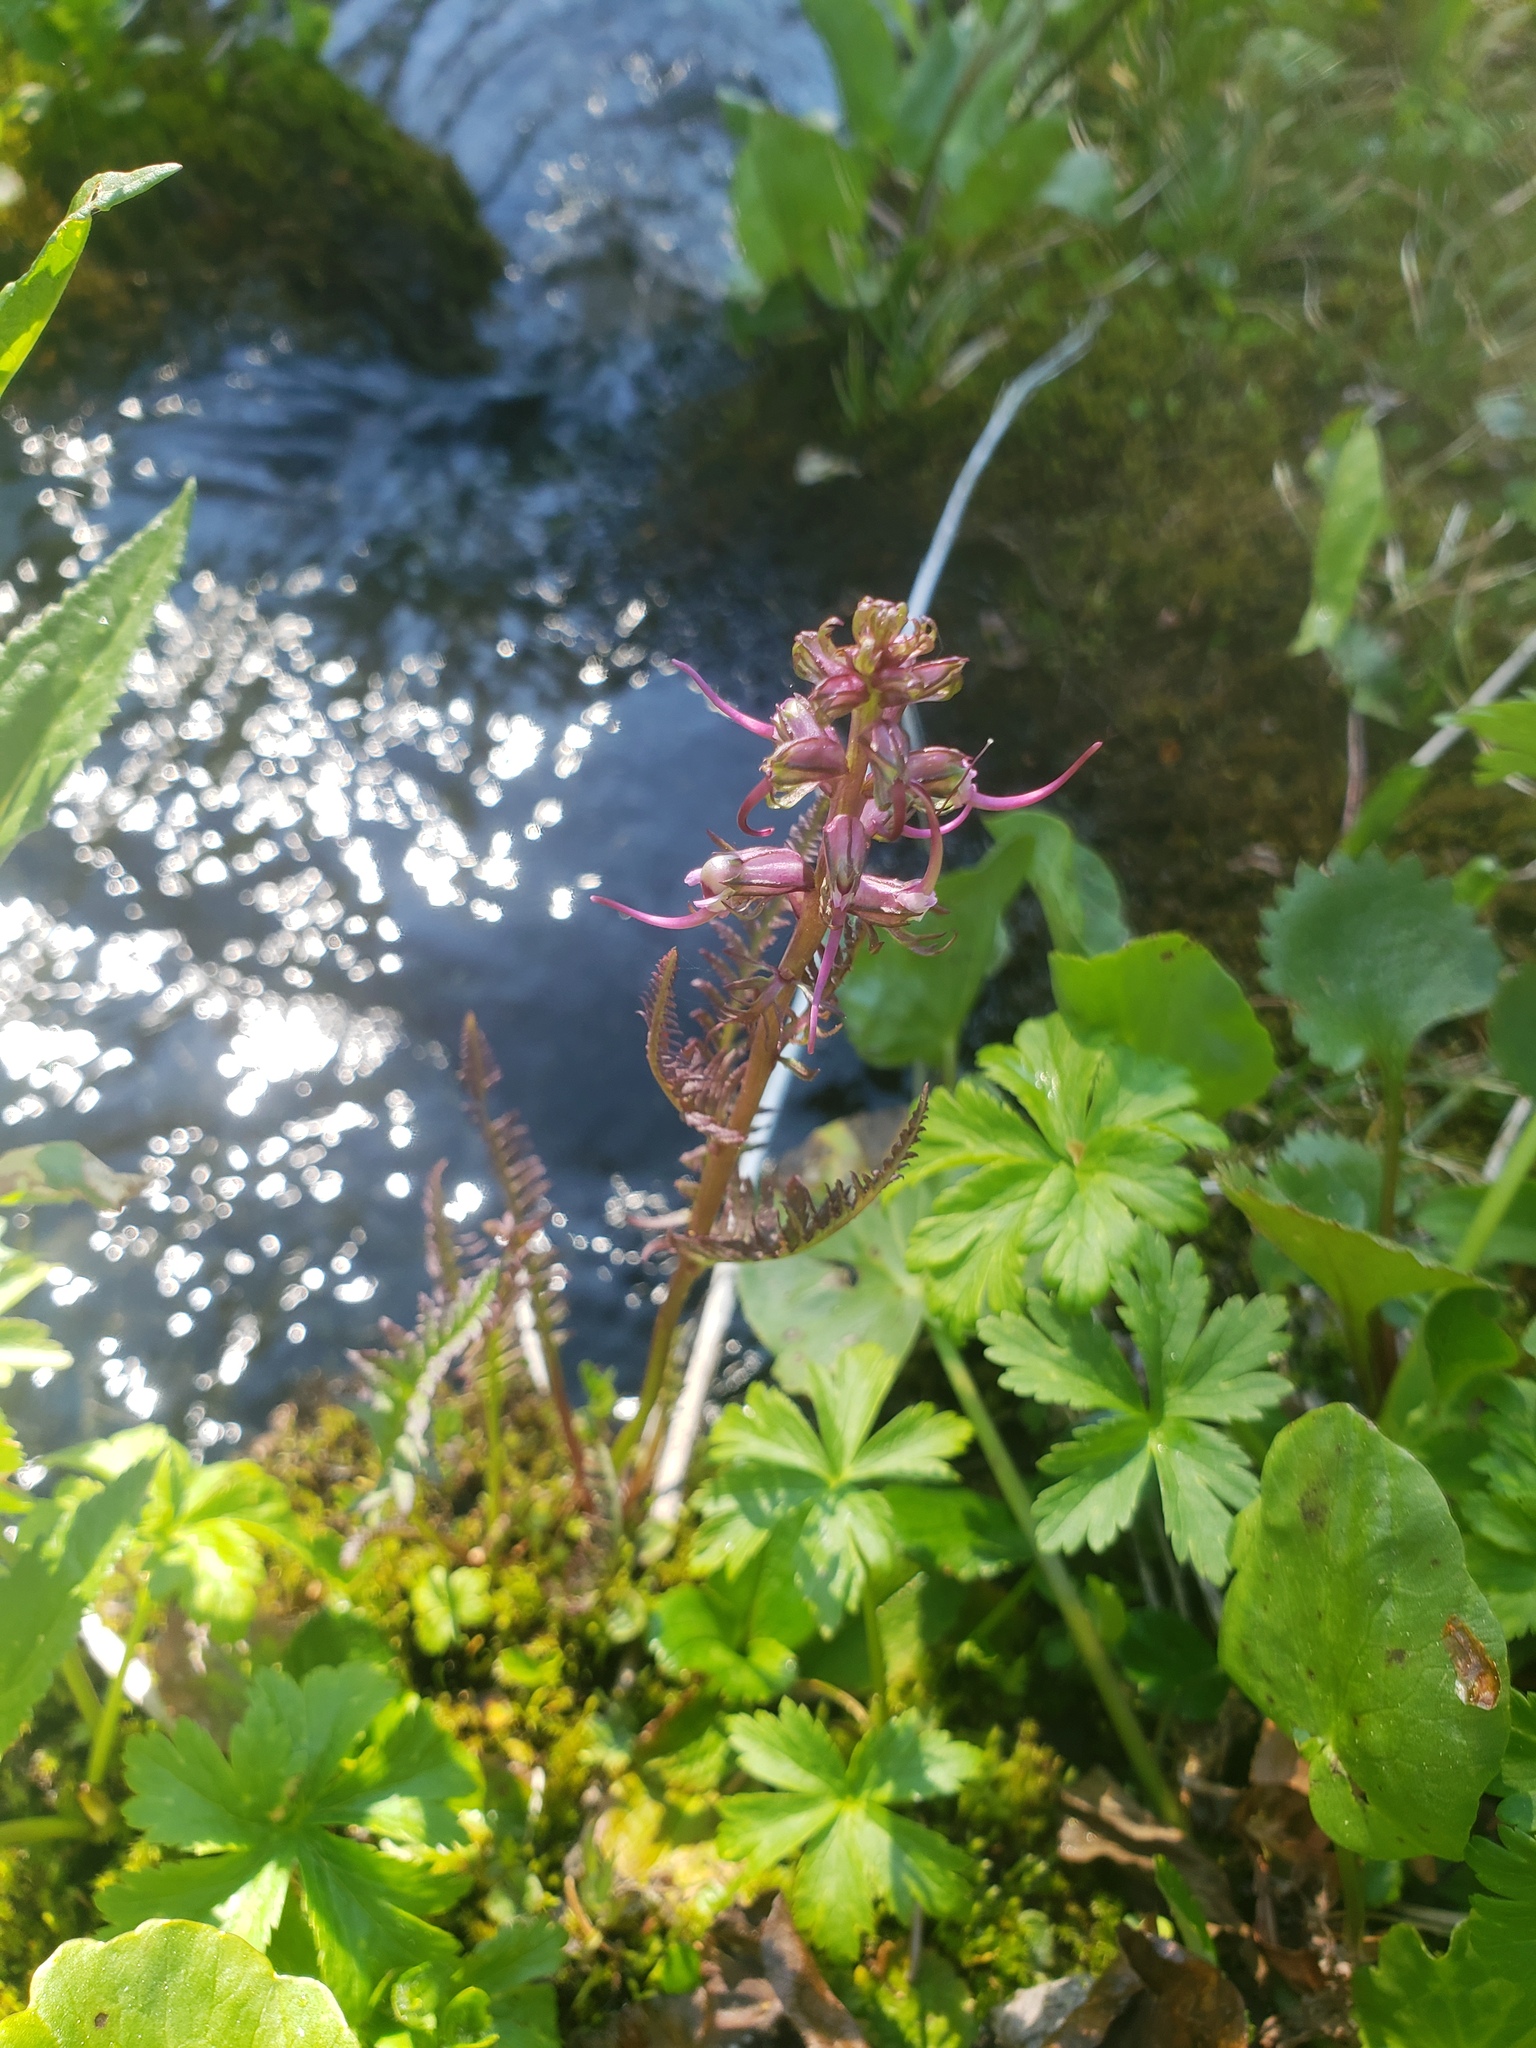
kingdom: Plantae
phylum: Tracheophyta
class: Magnoliopsida
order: Lamiales
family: Orobanchaceae
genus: Pedicularis
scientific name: Pedicularis groenlandica
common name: Elephant's-head
